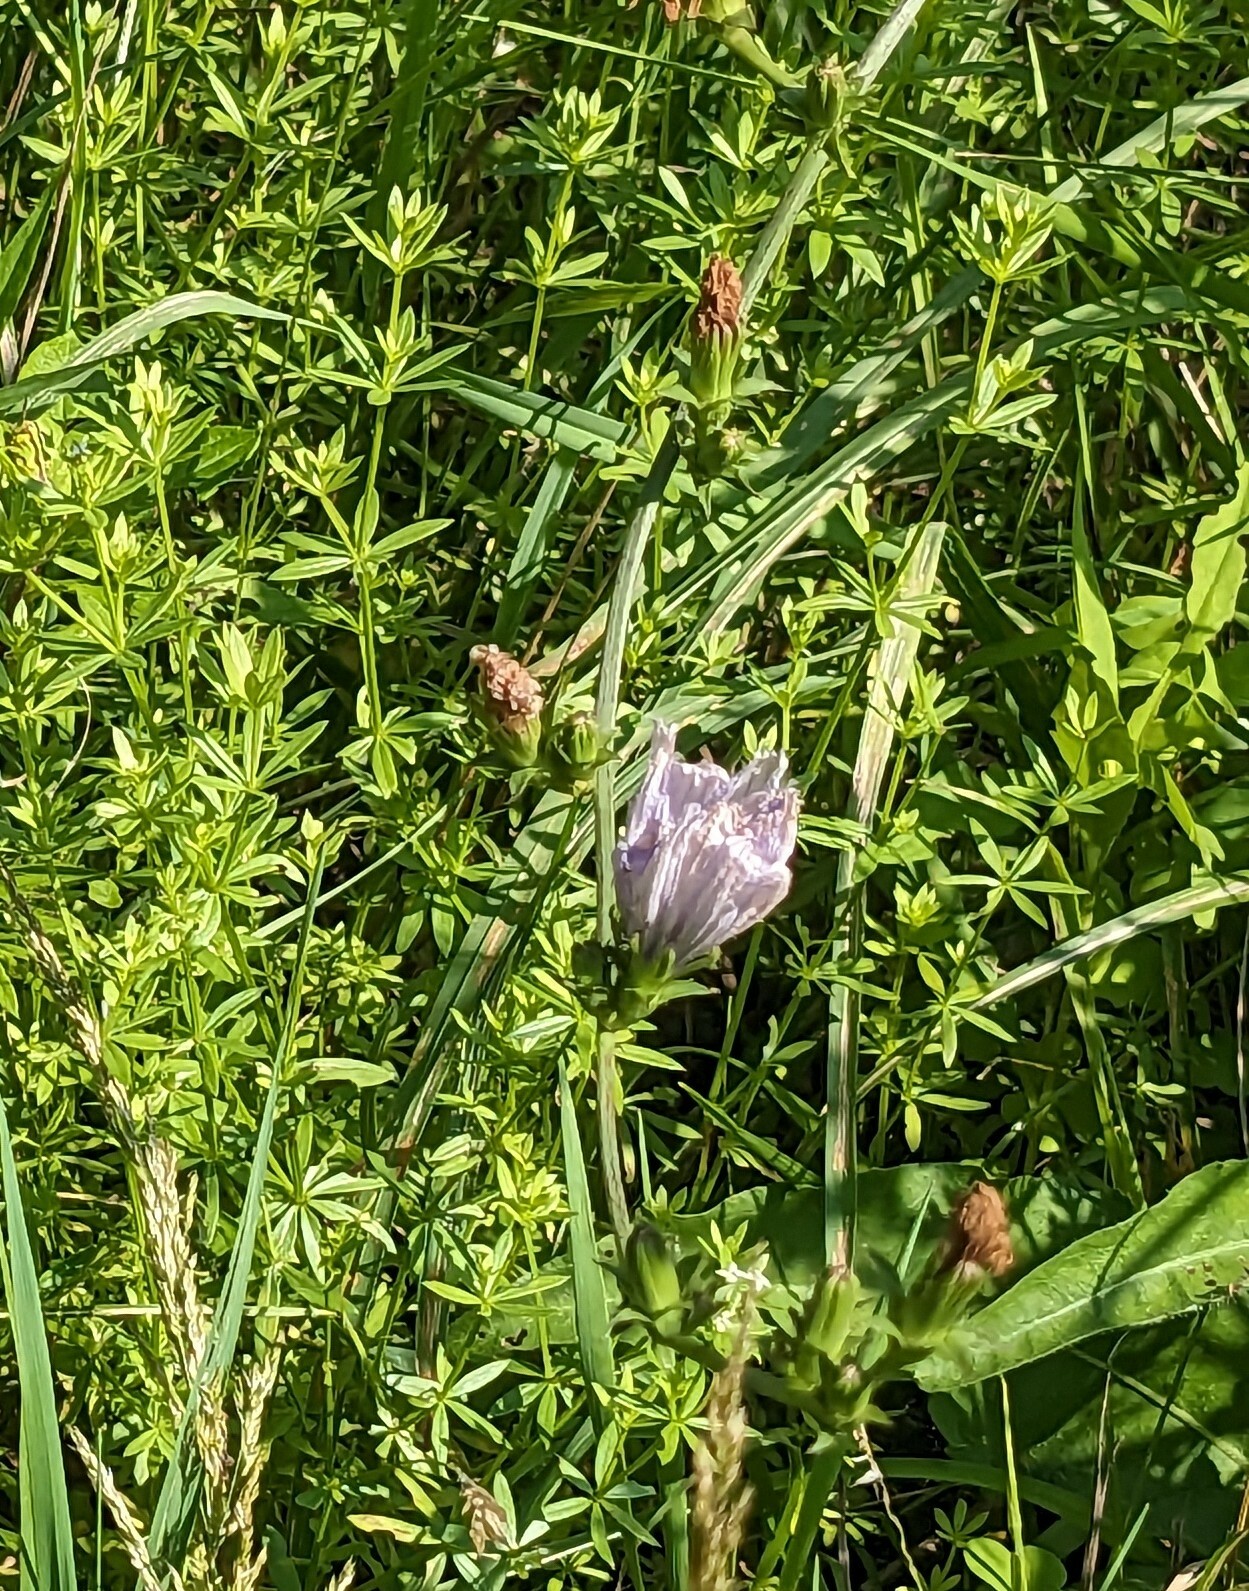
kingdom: Plantae
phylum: Tracheophyta
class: Magnoliopsida
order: Asterales
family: Asteraceae
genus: Cichorium
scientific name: Cichorium intybus
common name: Chicory
